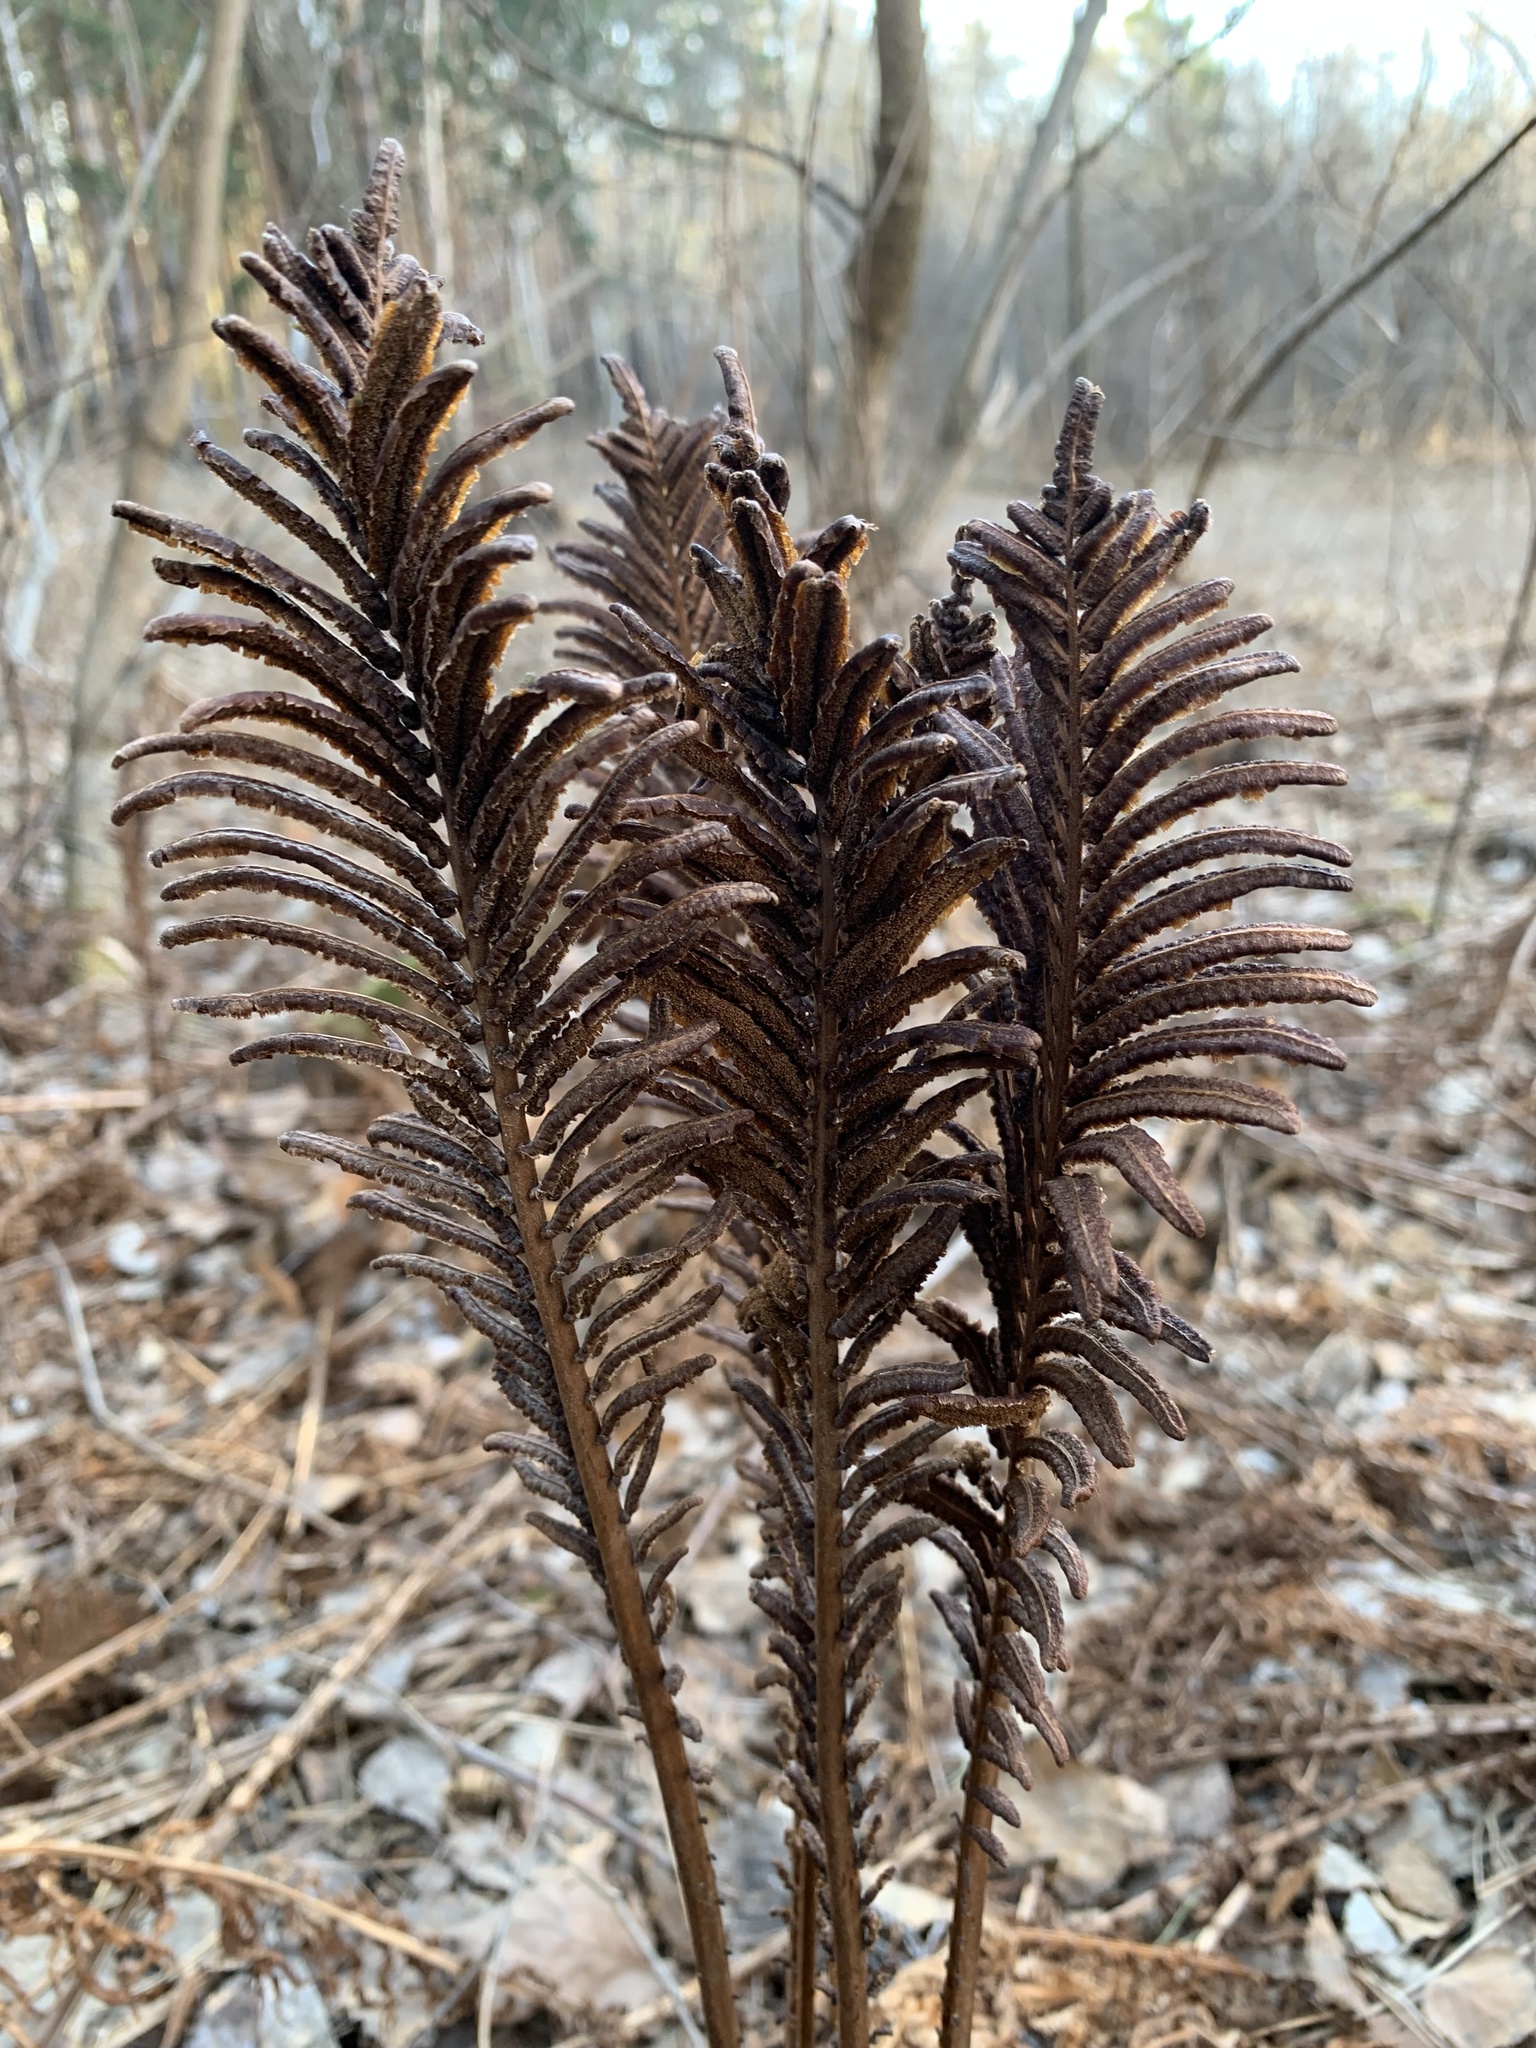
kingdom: Plantae
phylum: Tracheophyta
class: Polypodiopsida
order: Polypodiales
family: Onocleaceae
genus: Matteuccia
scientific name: Matteuccia struthiopteris
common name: Ostrich fern
